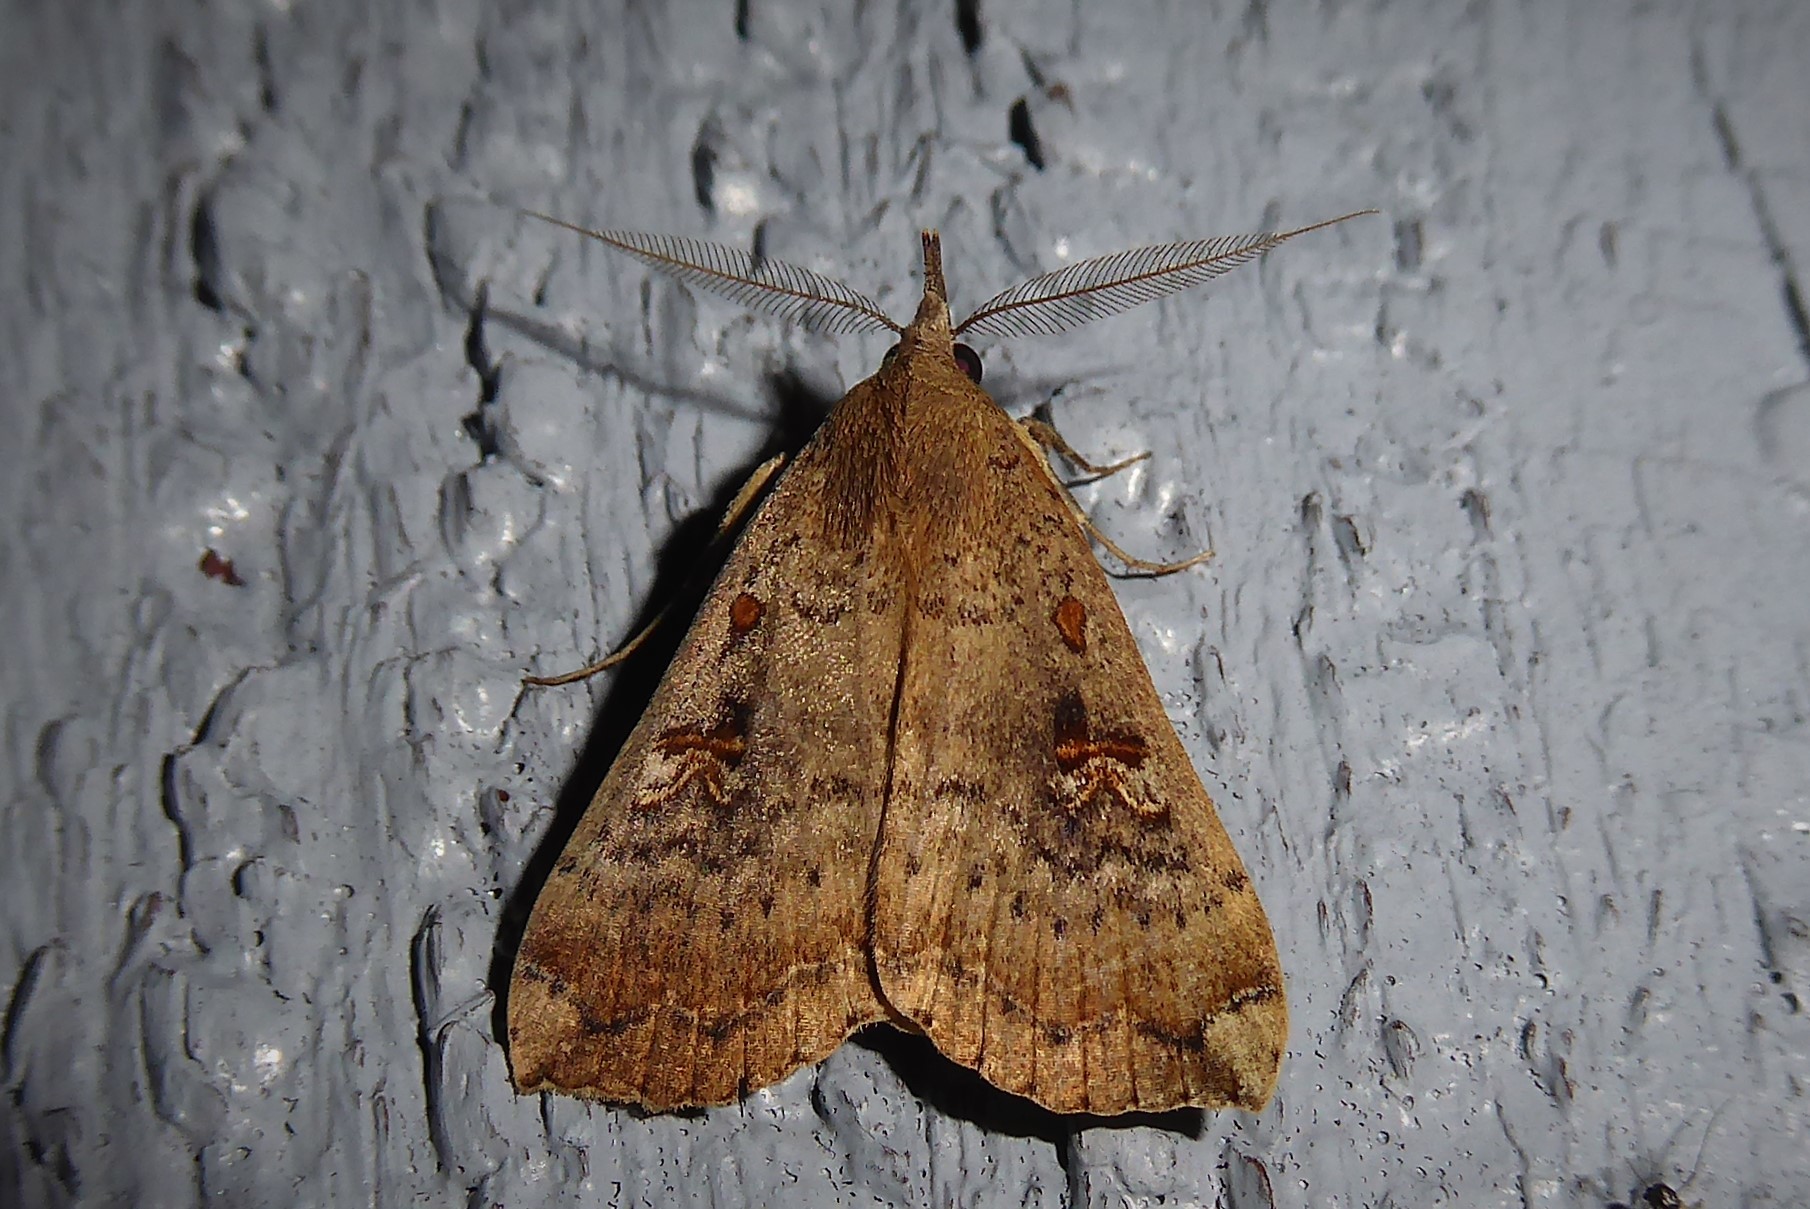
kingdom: Animalia
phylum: Arthropoda
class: Insecta
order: Lepidoptera
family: Erebidae
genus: Rhapsa
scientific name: Rhapsa scotosialis
